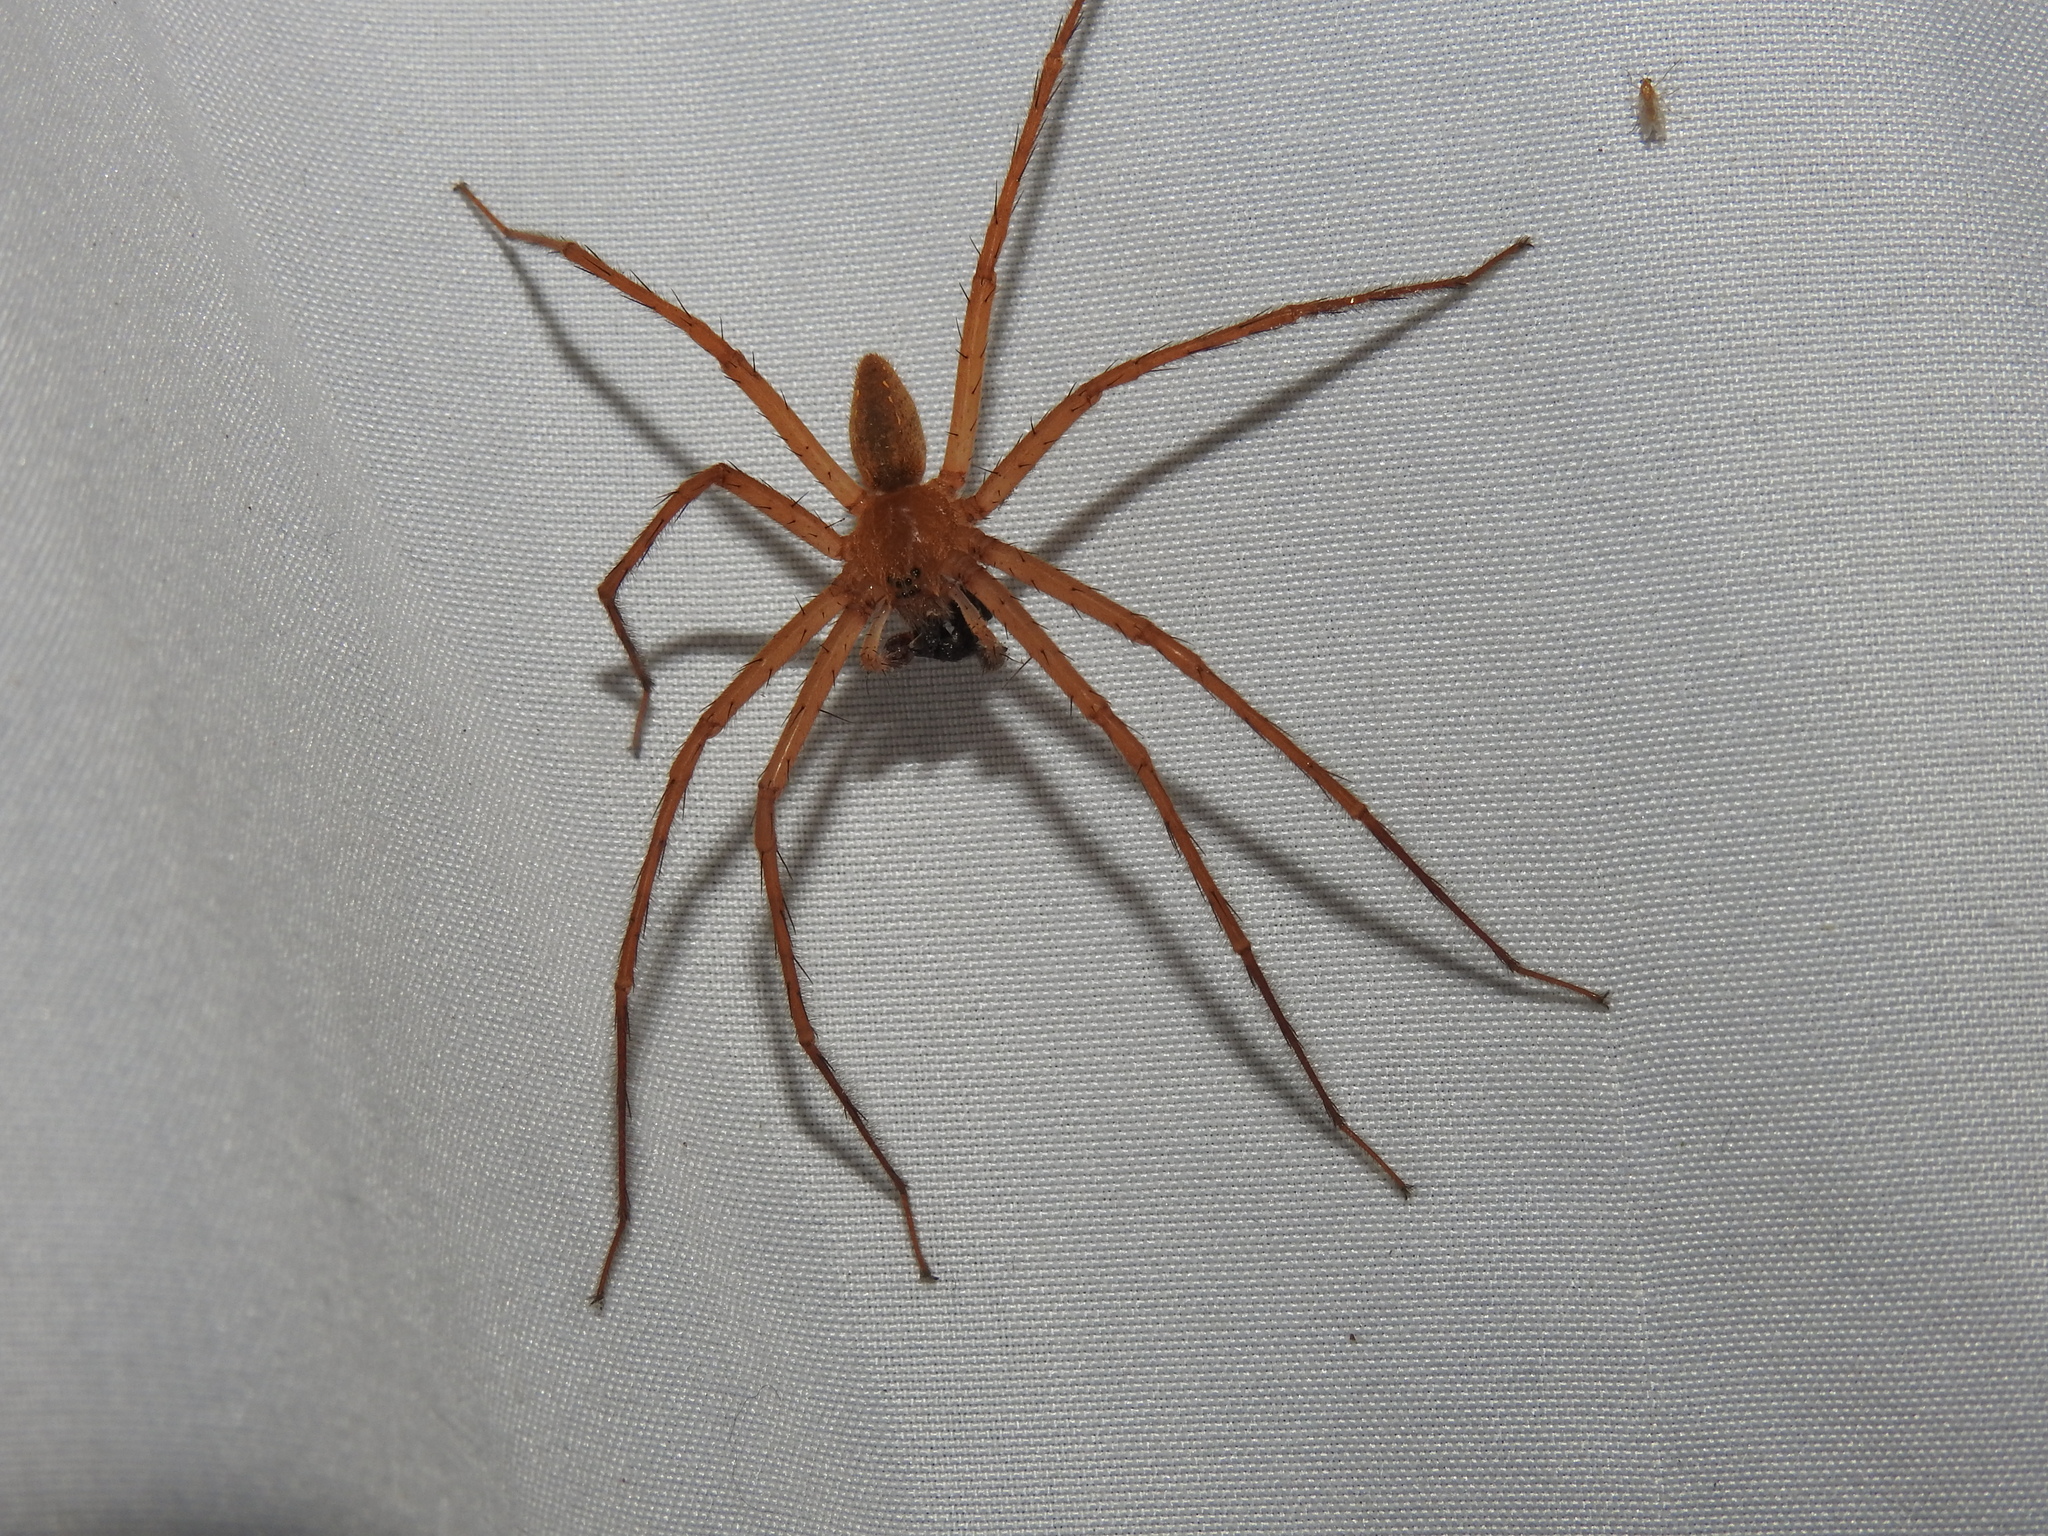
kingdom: Animalia
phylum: Arthropoda
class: Arachnida
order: Araneae
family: Pisauridae
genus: Pisaurina
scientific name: Pisaurina mira
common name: American nursery web spider
